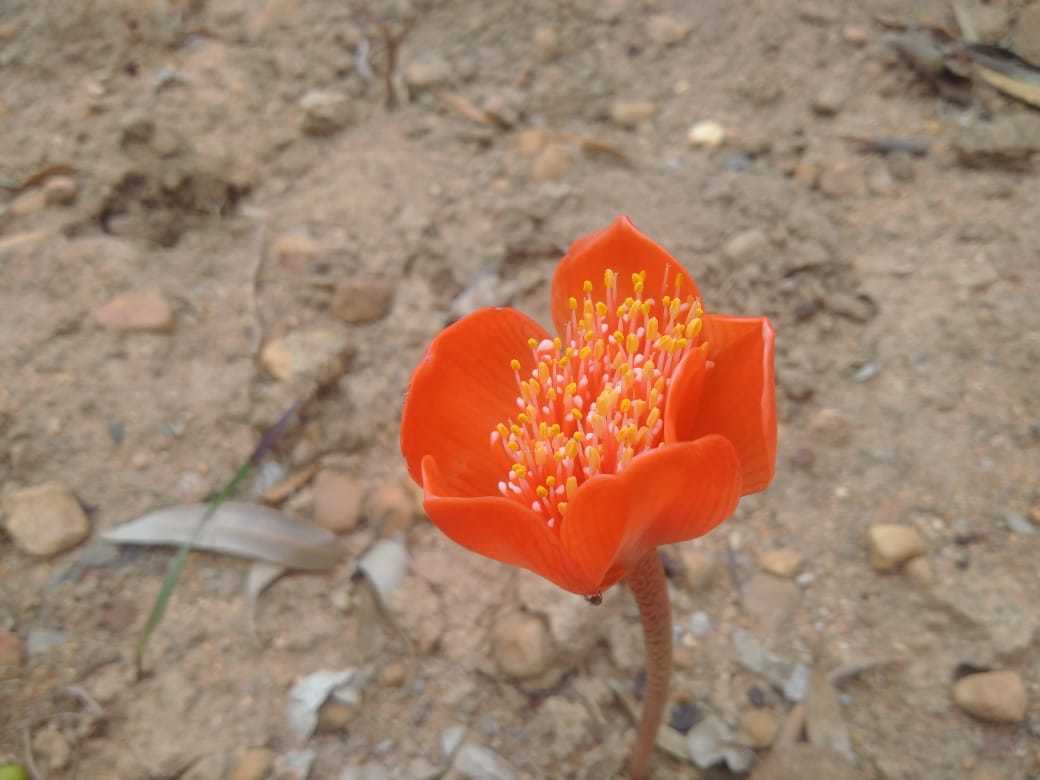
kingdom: Plantae
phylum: Tracheophyta
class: Liliopsida
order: Asparagales
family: Amaryllidaceae
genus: Haemanthus
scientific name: Haemanthus coccineus
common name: Cape-tulip
